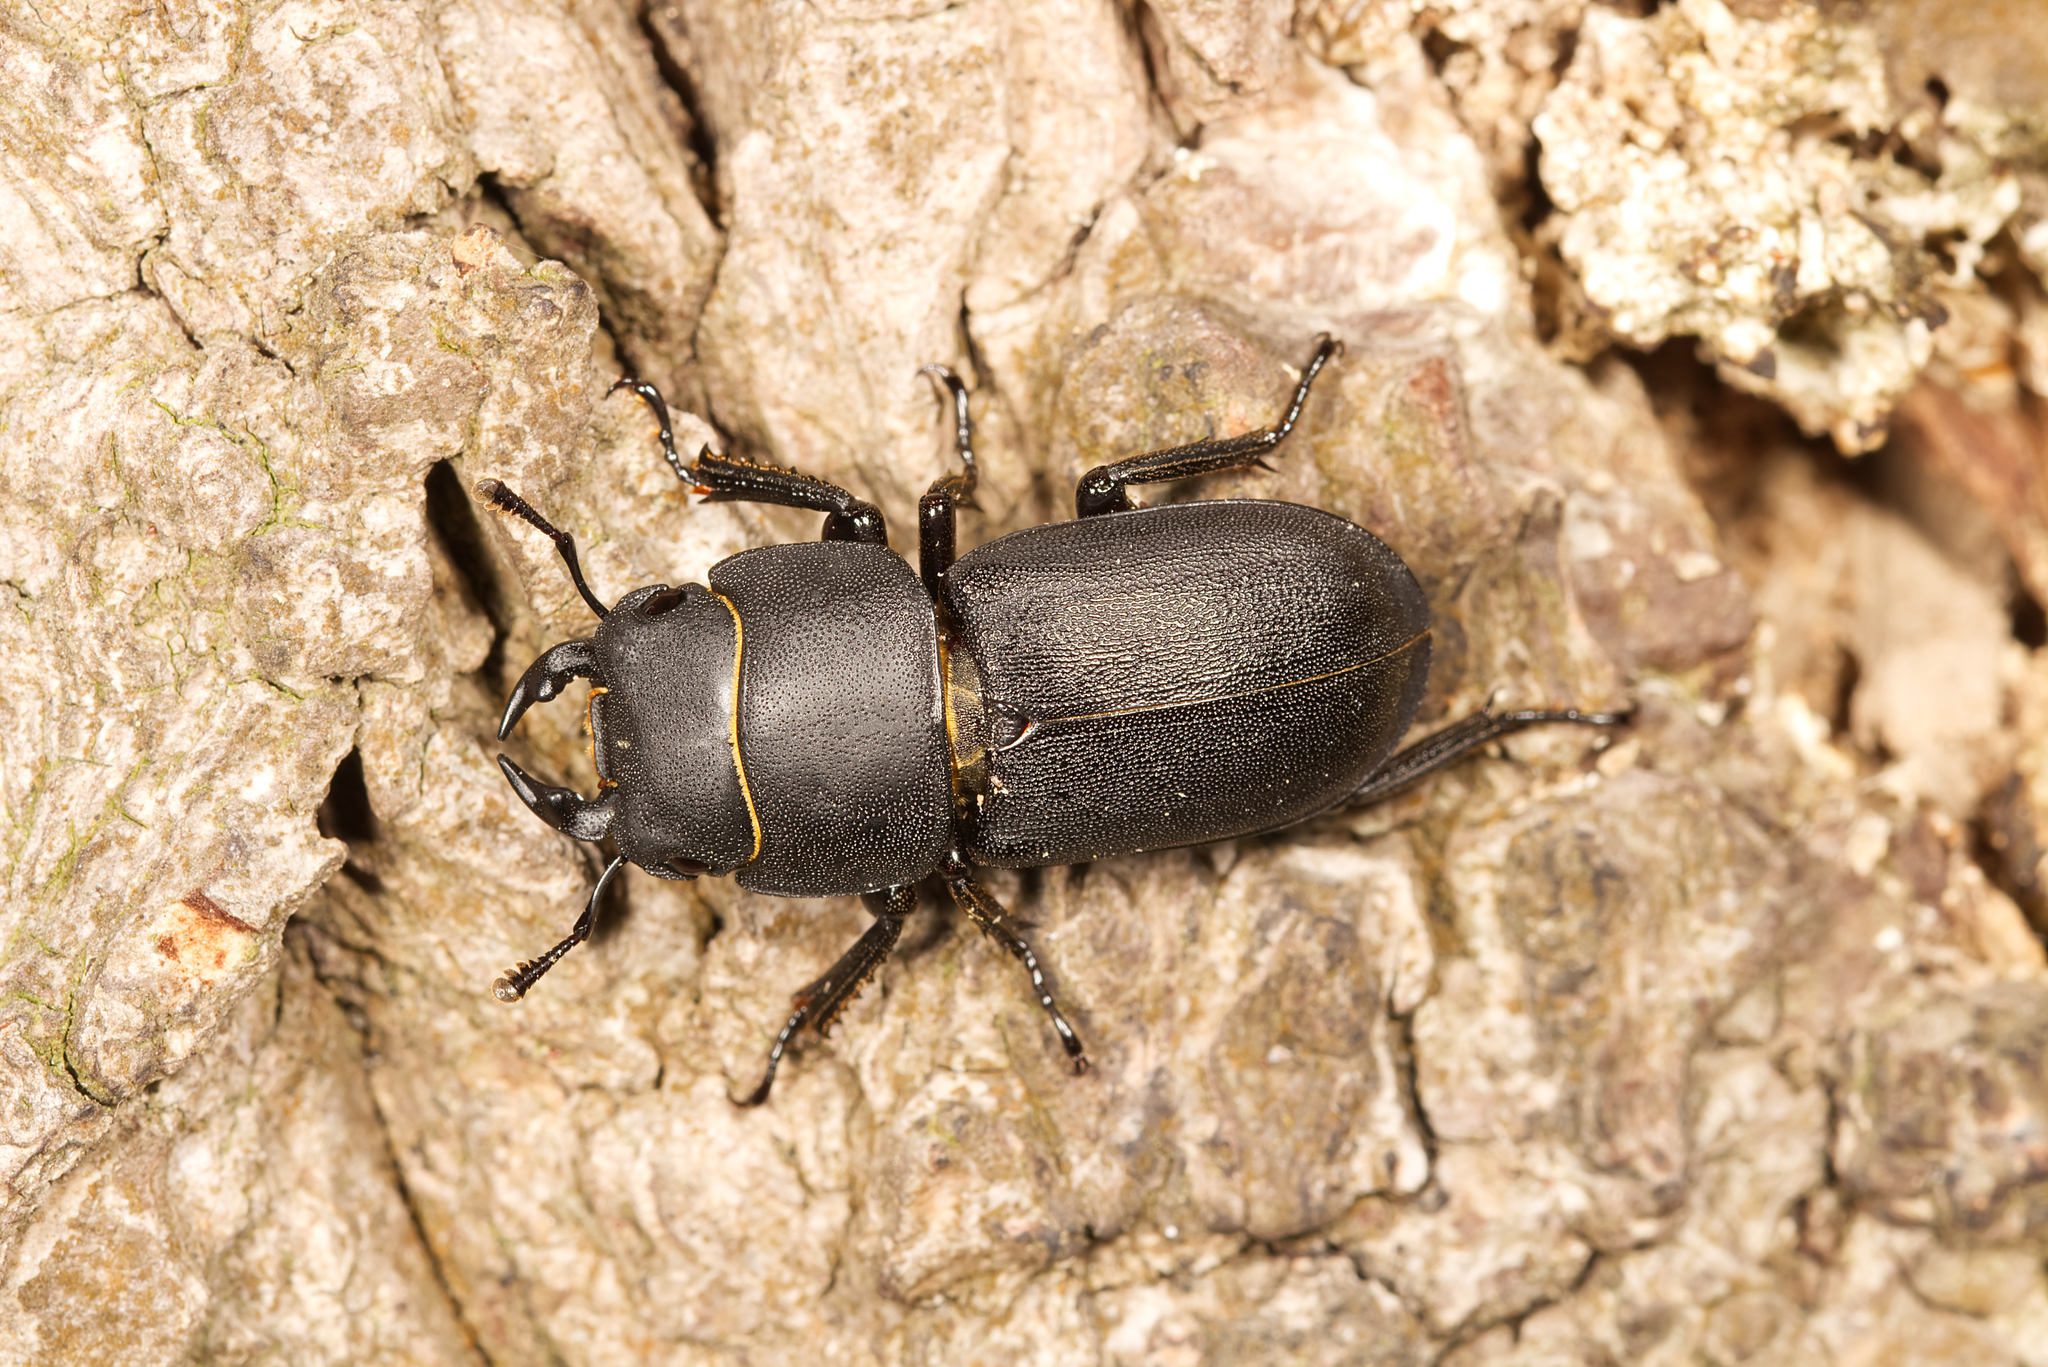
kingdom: Animalia
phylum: Arthropoda
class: Insecta
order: Coleoptera
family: Lucanidae
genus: Dorcus
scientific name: Dorcus parallelipipedus
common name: Lesser stag beetle
